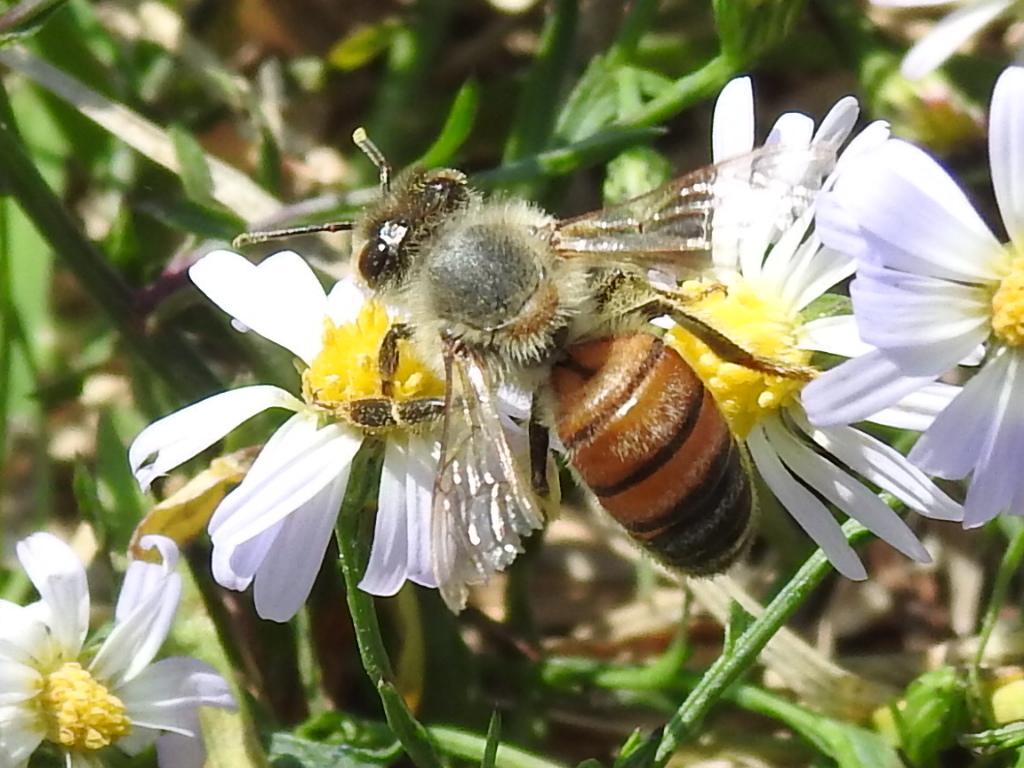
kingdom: Animalia
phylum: Arthropoda
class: Insecta
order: Hymenoptera
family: Apidae
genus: Apis
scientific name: Apis mellifera
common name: Honey bee
